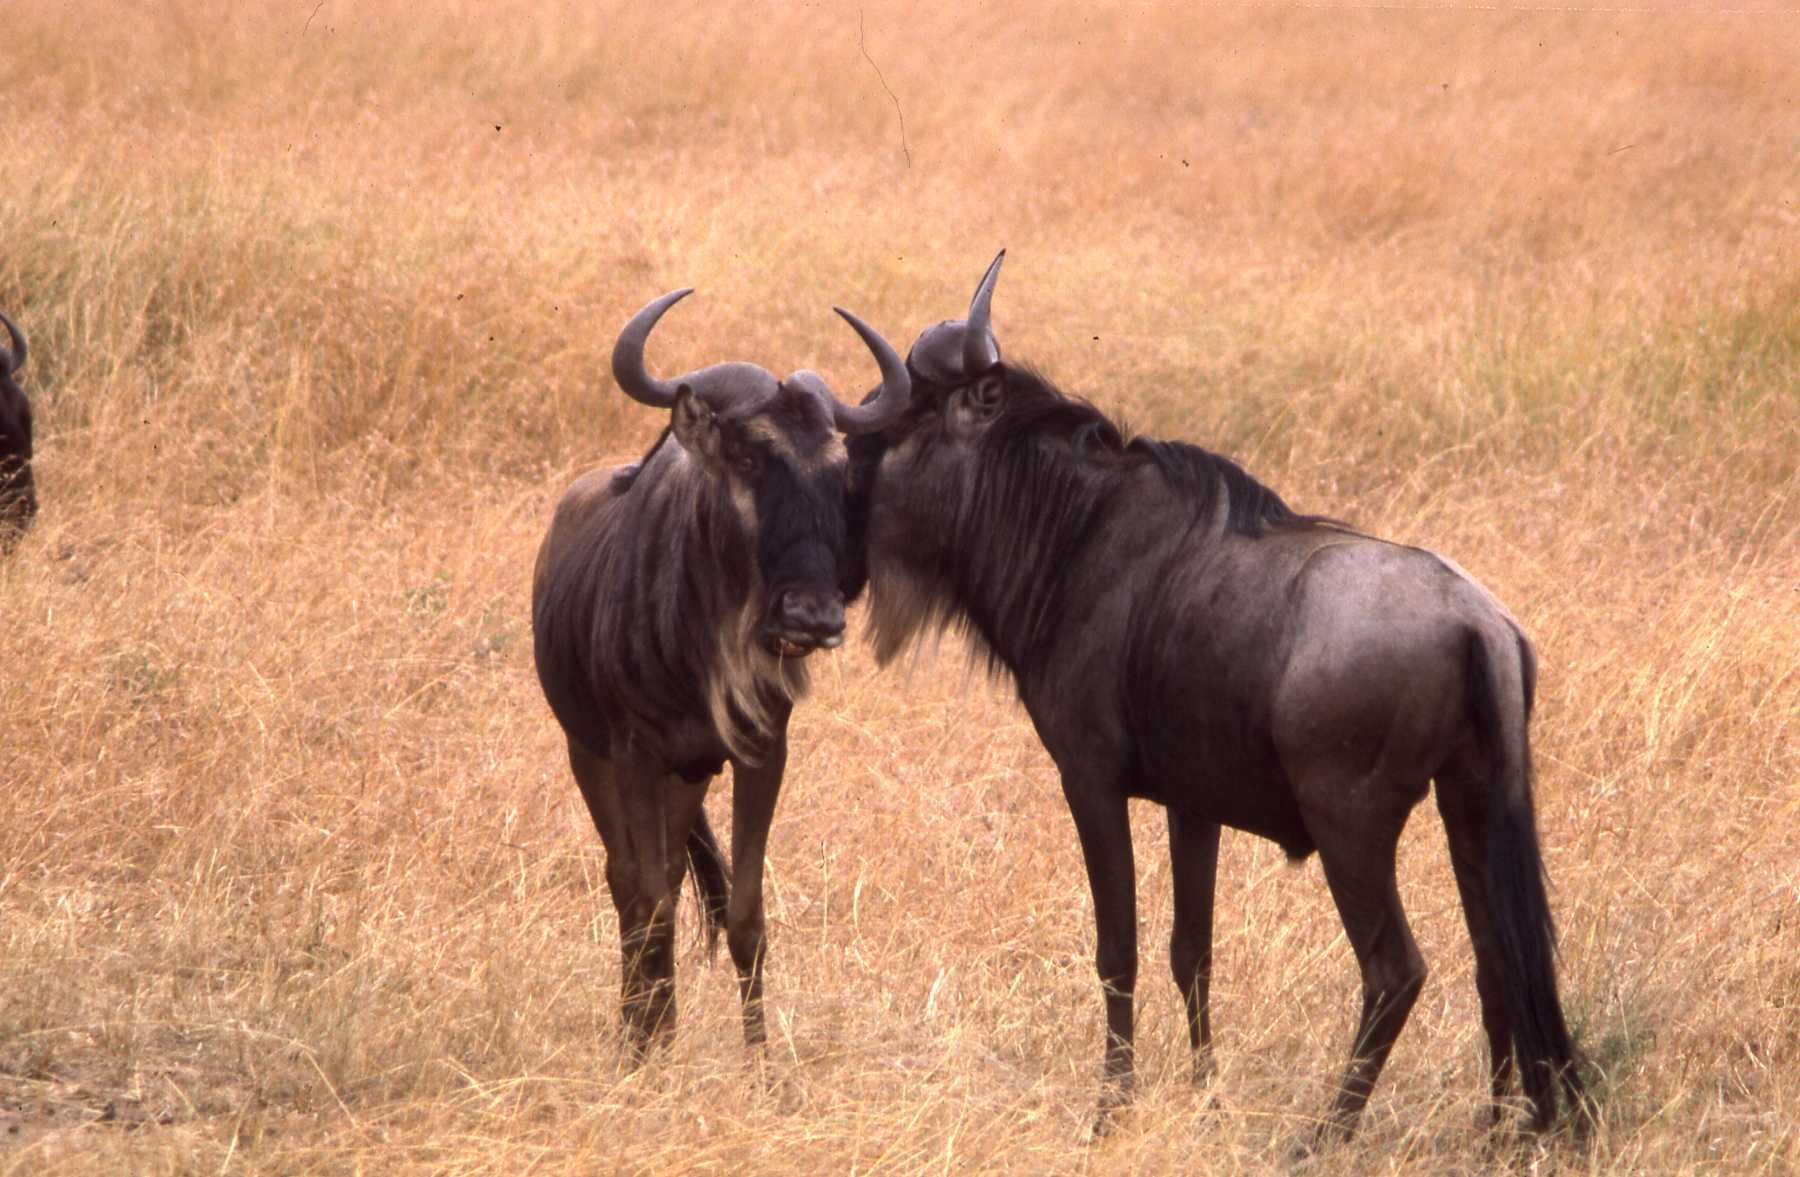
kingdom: Animalia
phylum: Chordata
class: Mammalia
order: Artiodactyla
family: Bovidae
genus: Connochaetes
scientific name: Connochaetes taurinus
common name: Blue wildebeest
